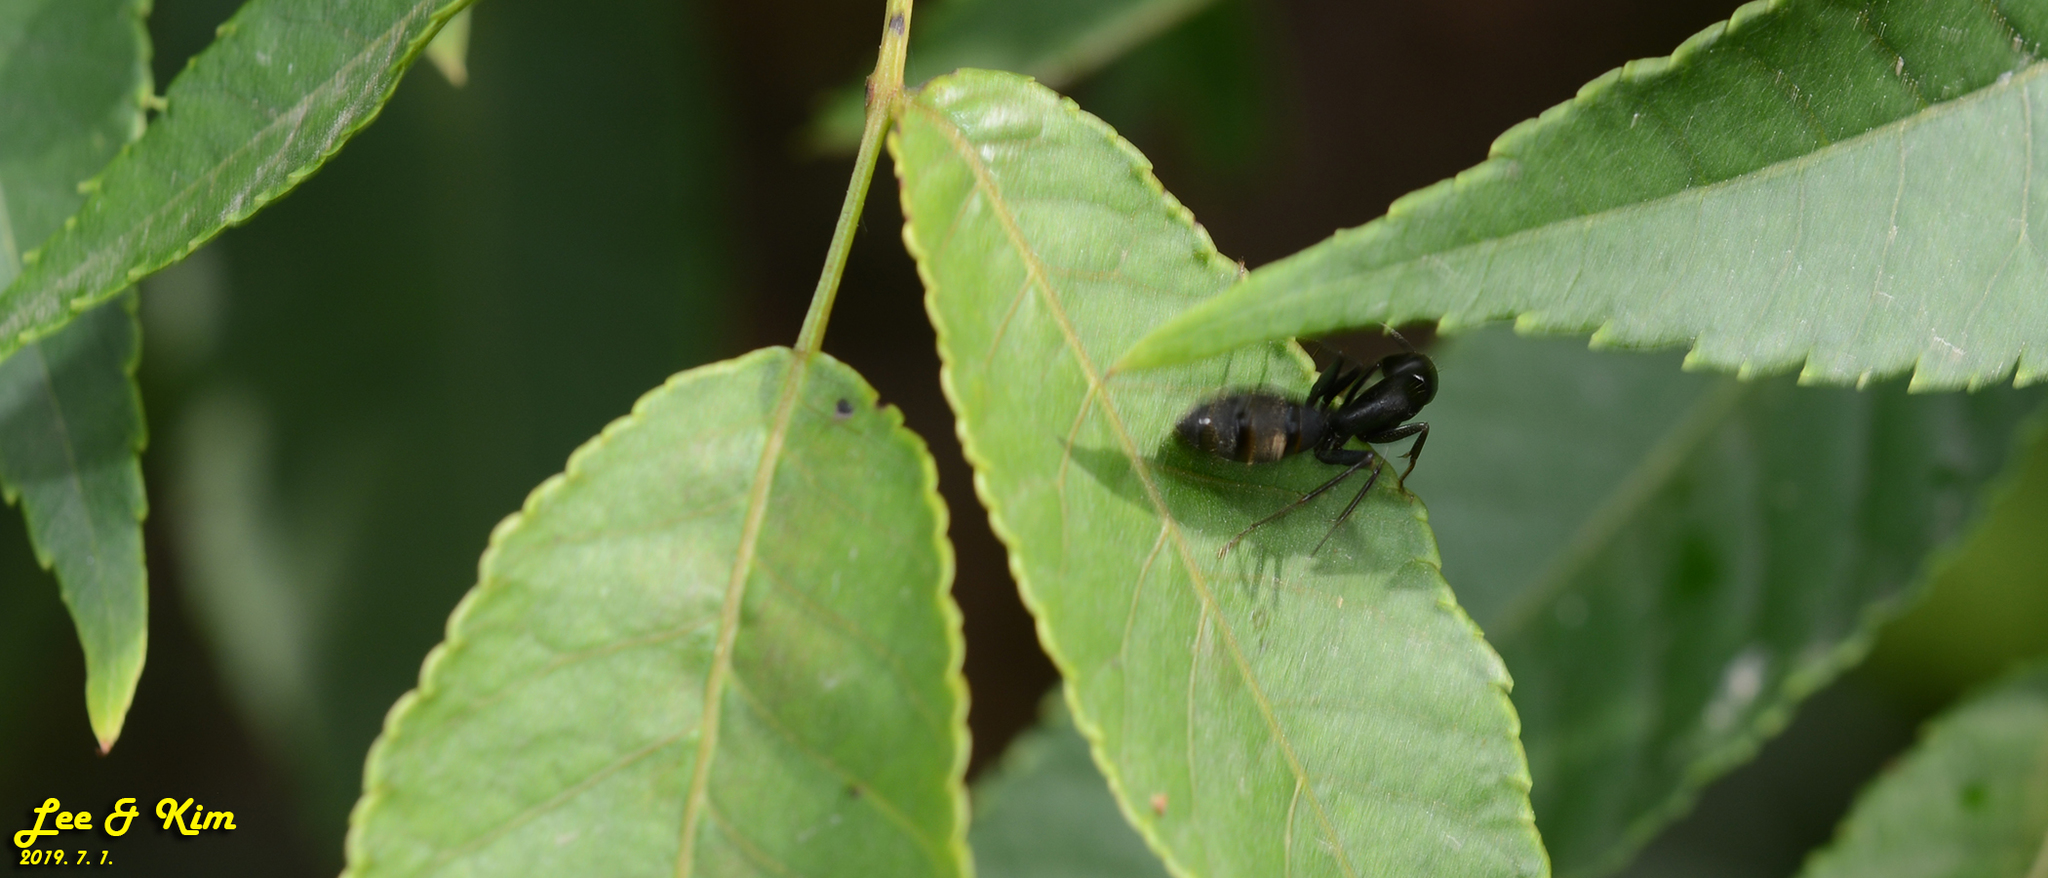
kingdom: Animalia
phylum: Arthropoda
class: Insecta
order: Hymenoptera
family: Formicidae
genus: Camponotus
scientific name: Camponotus japonicus
